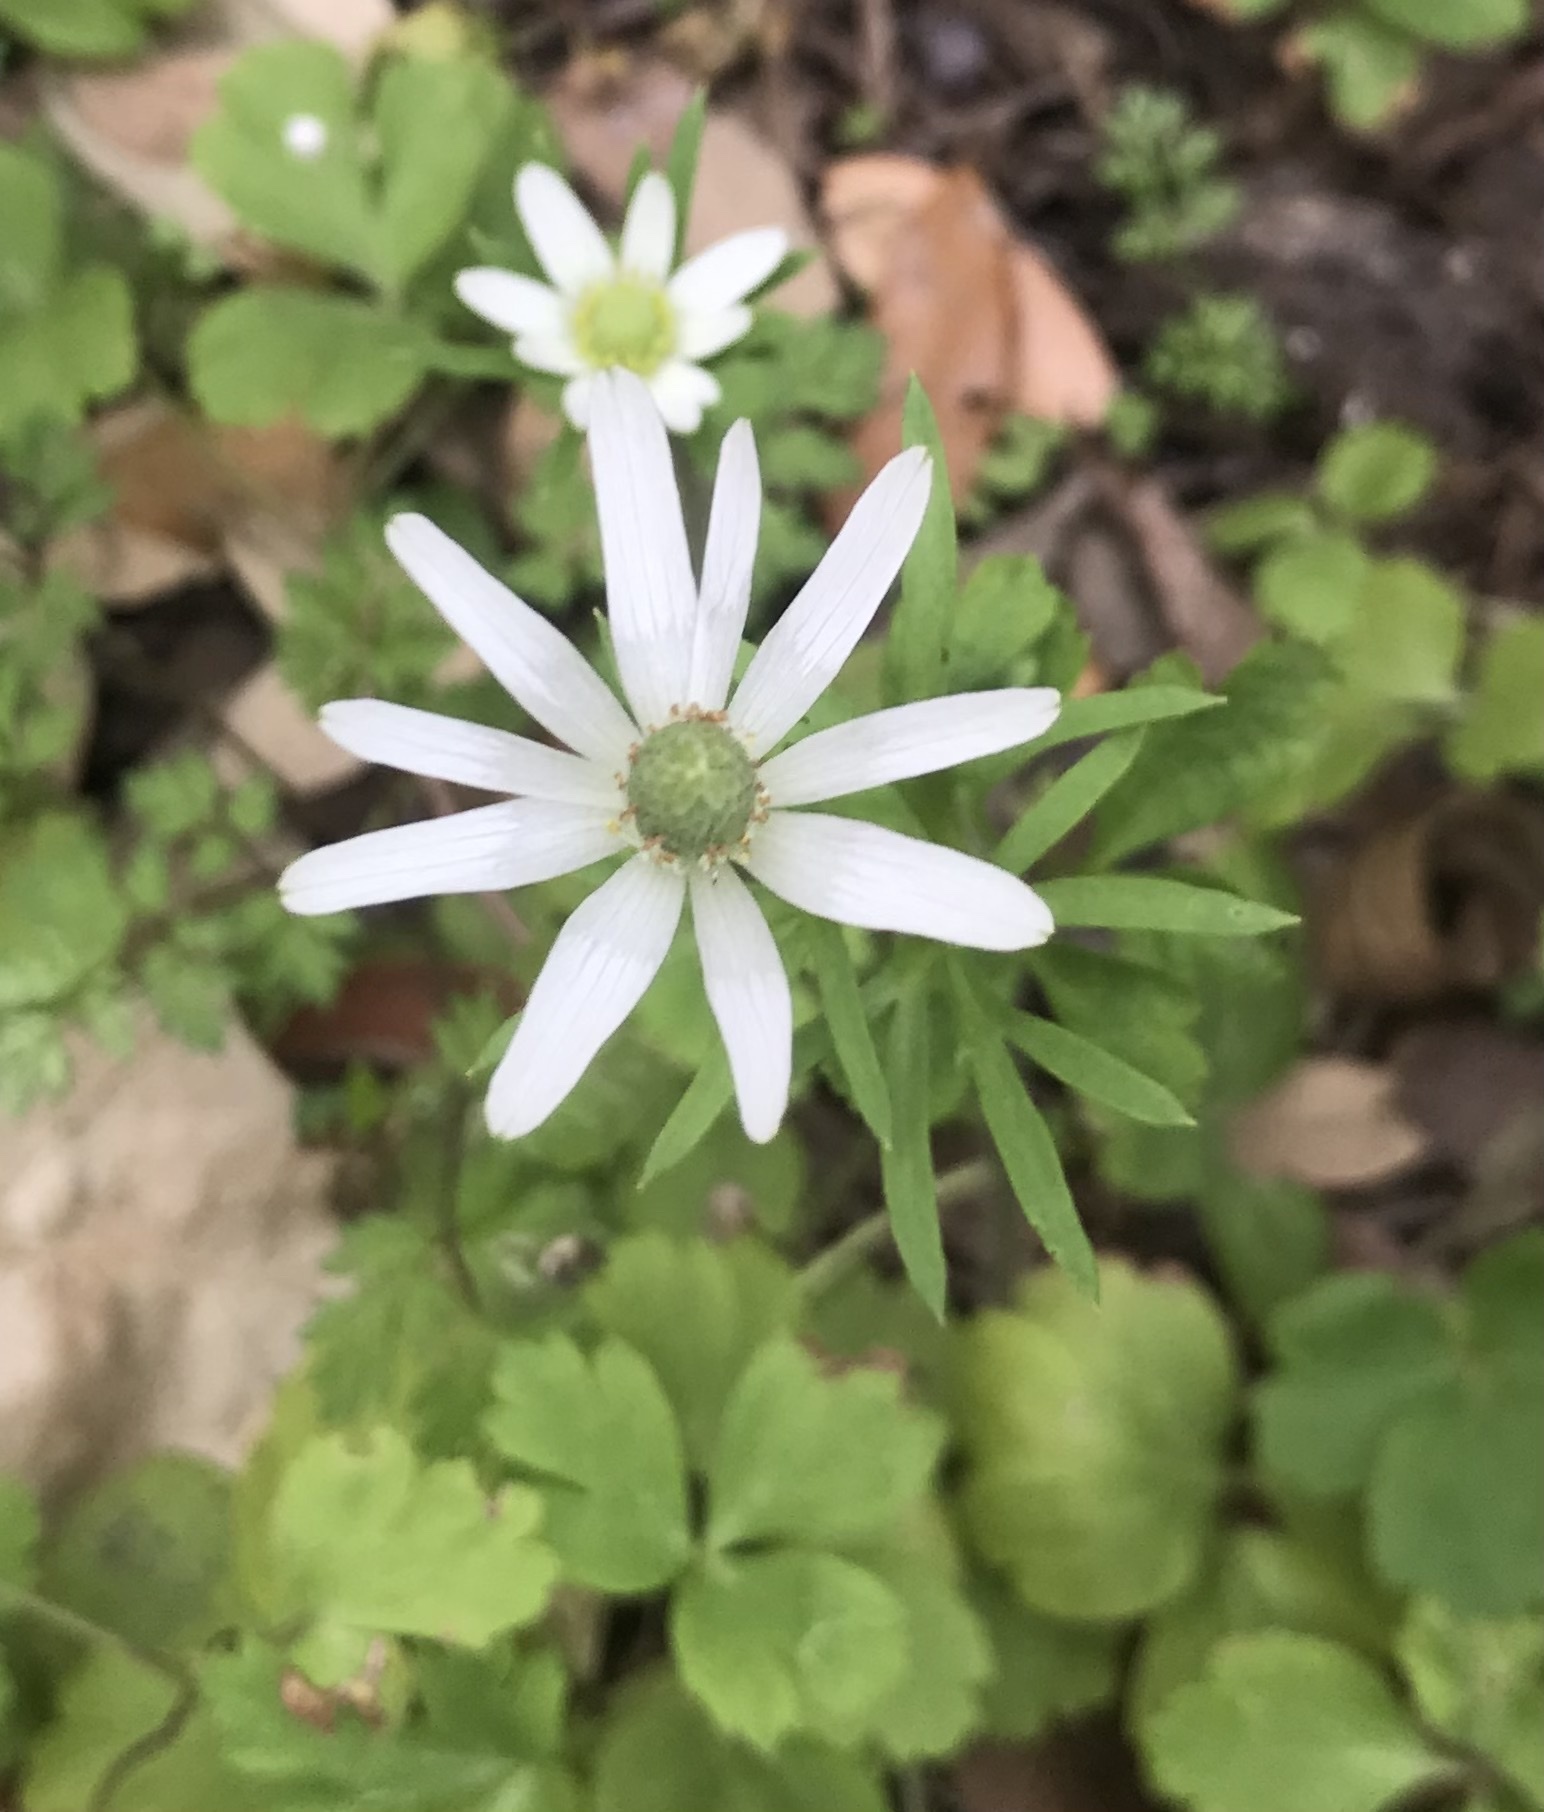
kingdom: Plantae
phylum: Tracheophyta
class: Magnoliopsida
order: Ranunculales
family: Ranunculaceae
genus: Anemone
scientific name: Anemone berlandieri
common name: Ten-petal anemone
